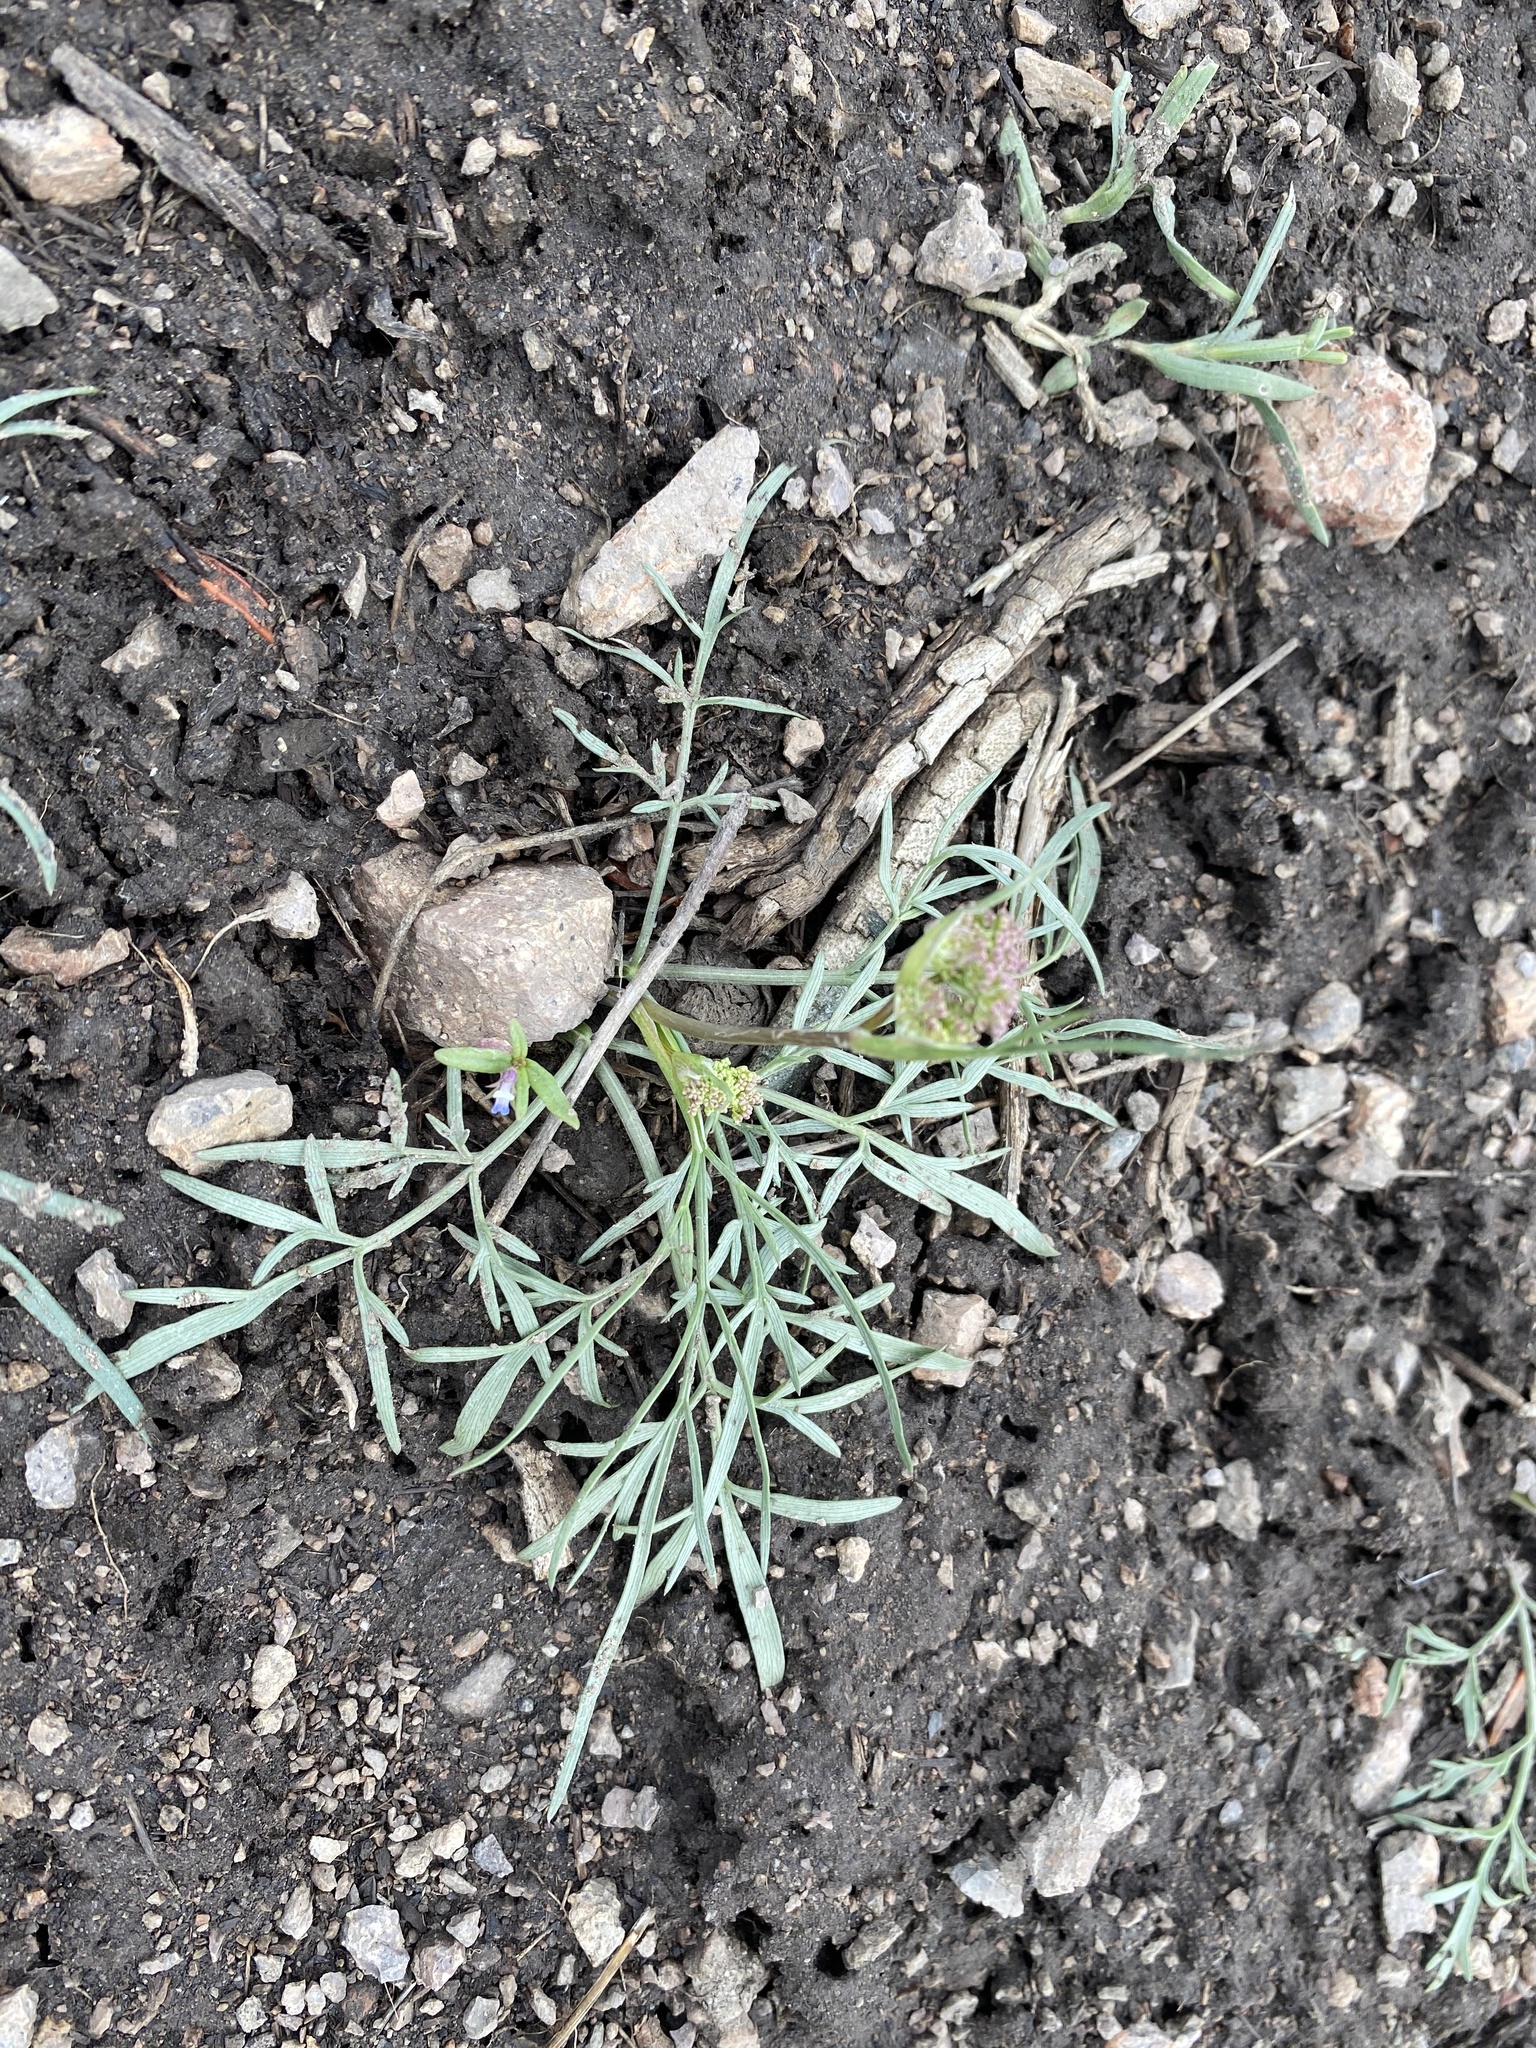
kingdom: Plantae
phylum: Tracheophyta
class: Magnoliopsida
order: Apiales
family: Apiaceae
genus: Perideridia
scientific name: Perideridia bolanderi
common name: Olasi
